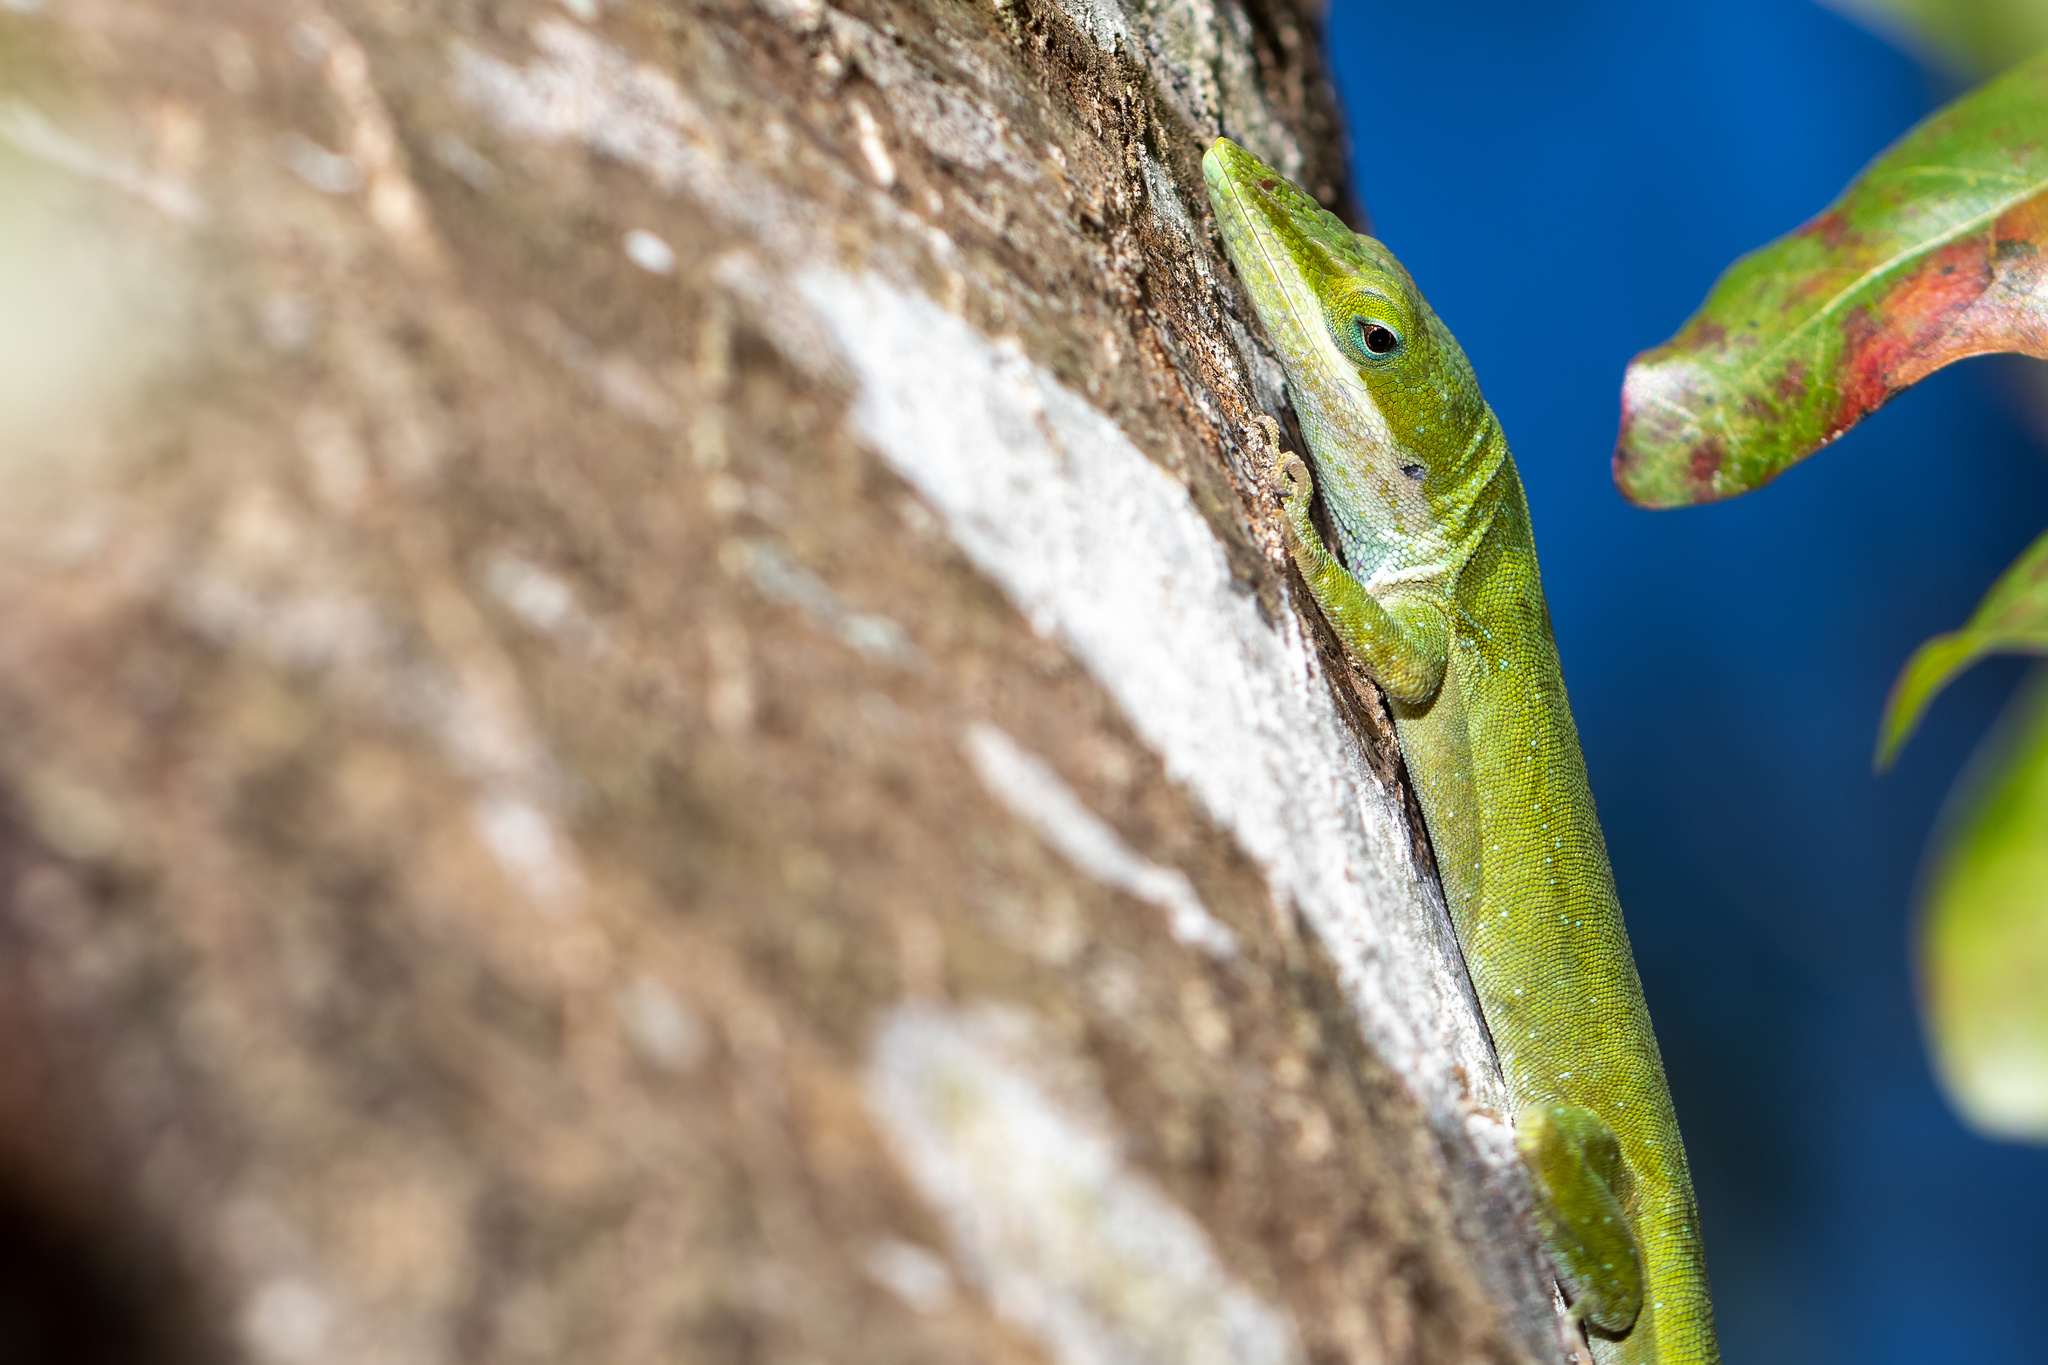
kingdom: Animalia
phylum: Chordata
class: Squamata
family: Dactyloidae
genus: Anolis
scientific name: Anolis carolinensis
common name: Green anole
